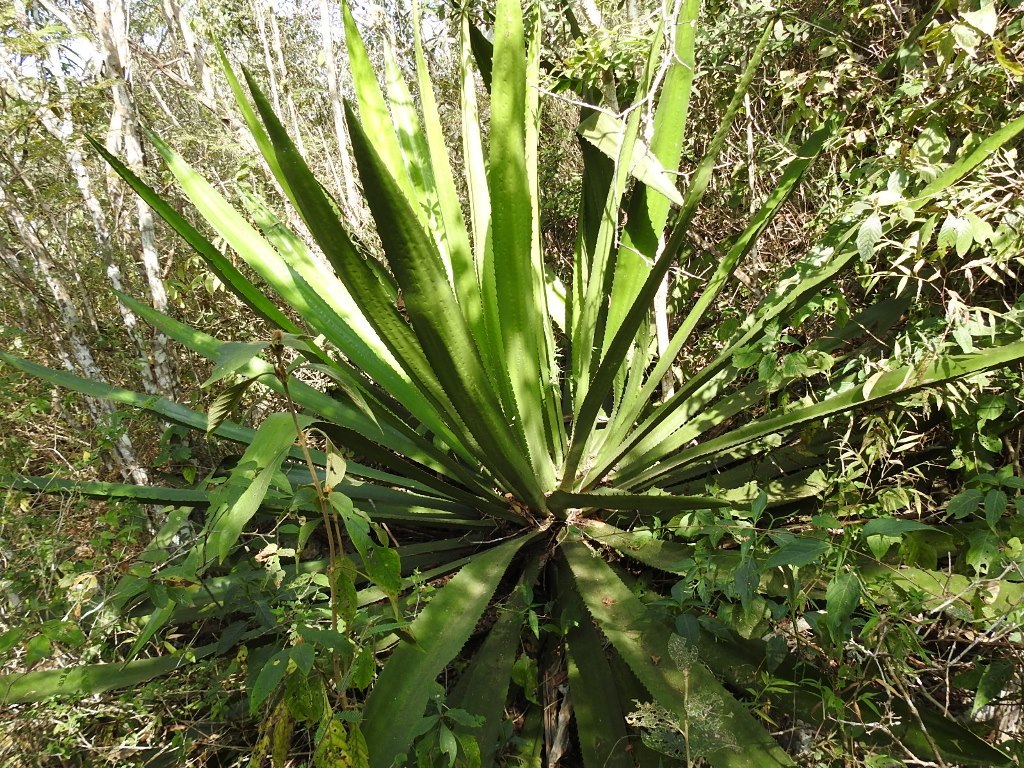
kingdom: Plantae
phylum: Tracheophyta
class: Liliopsida
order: Asparagales
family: Asparagaceae
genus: Furcraea
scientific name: Furcraea guatemalensis
